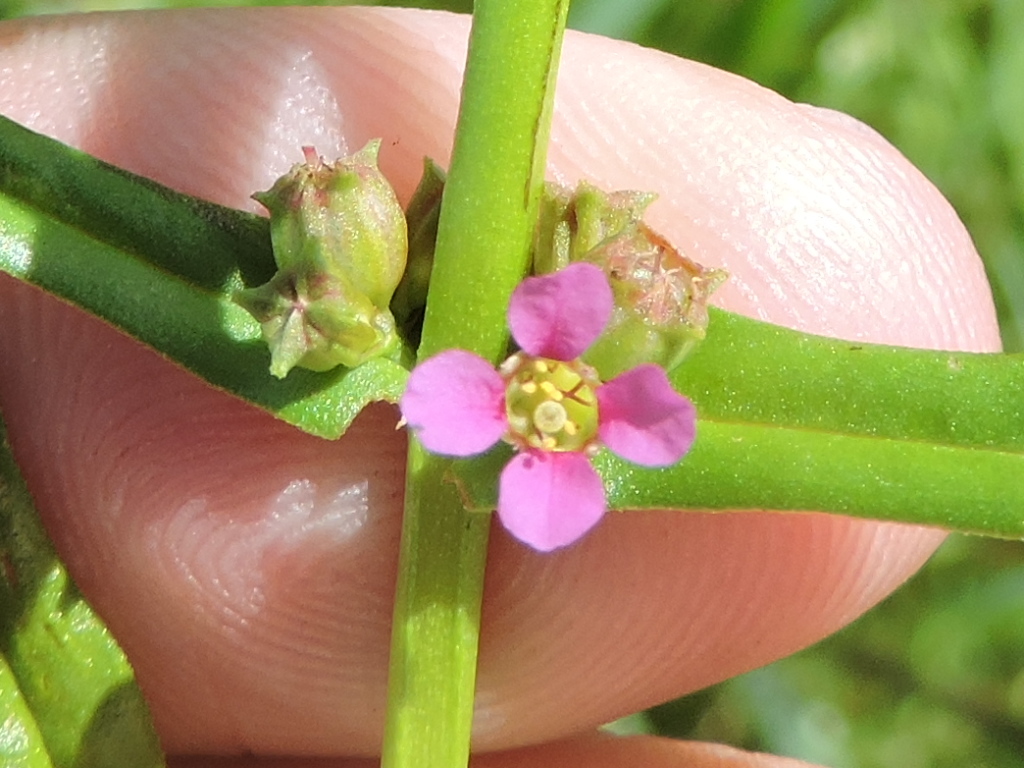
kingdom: Plantae
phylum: Tracheophyta
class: Magnoliopsida
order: Myrtales
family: Lythraceae
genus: Ammannia
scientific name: Ammannia coccinea
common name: Valley redstem
